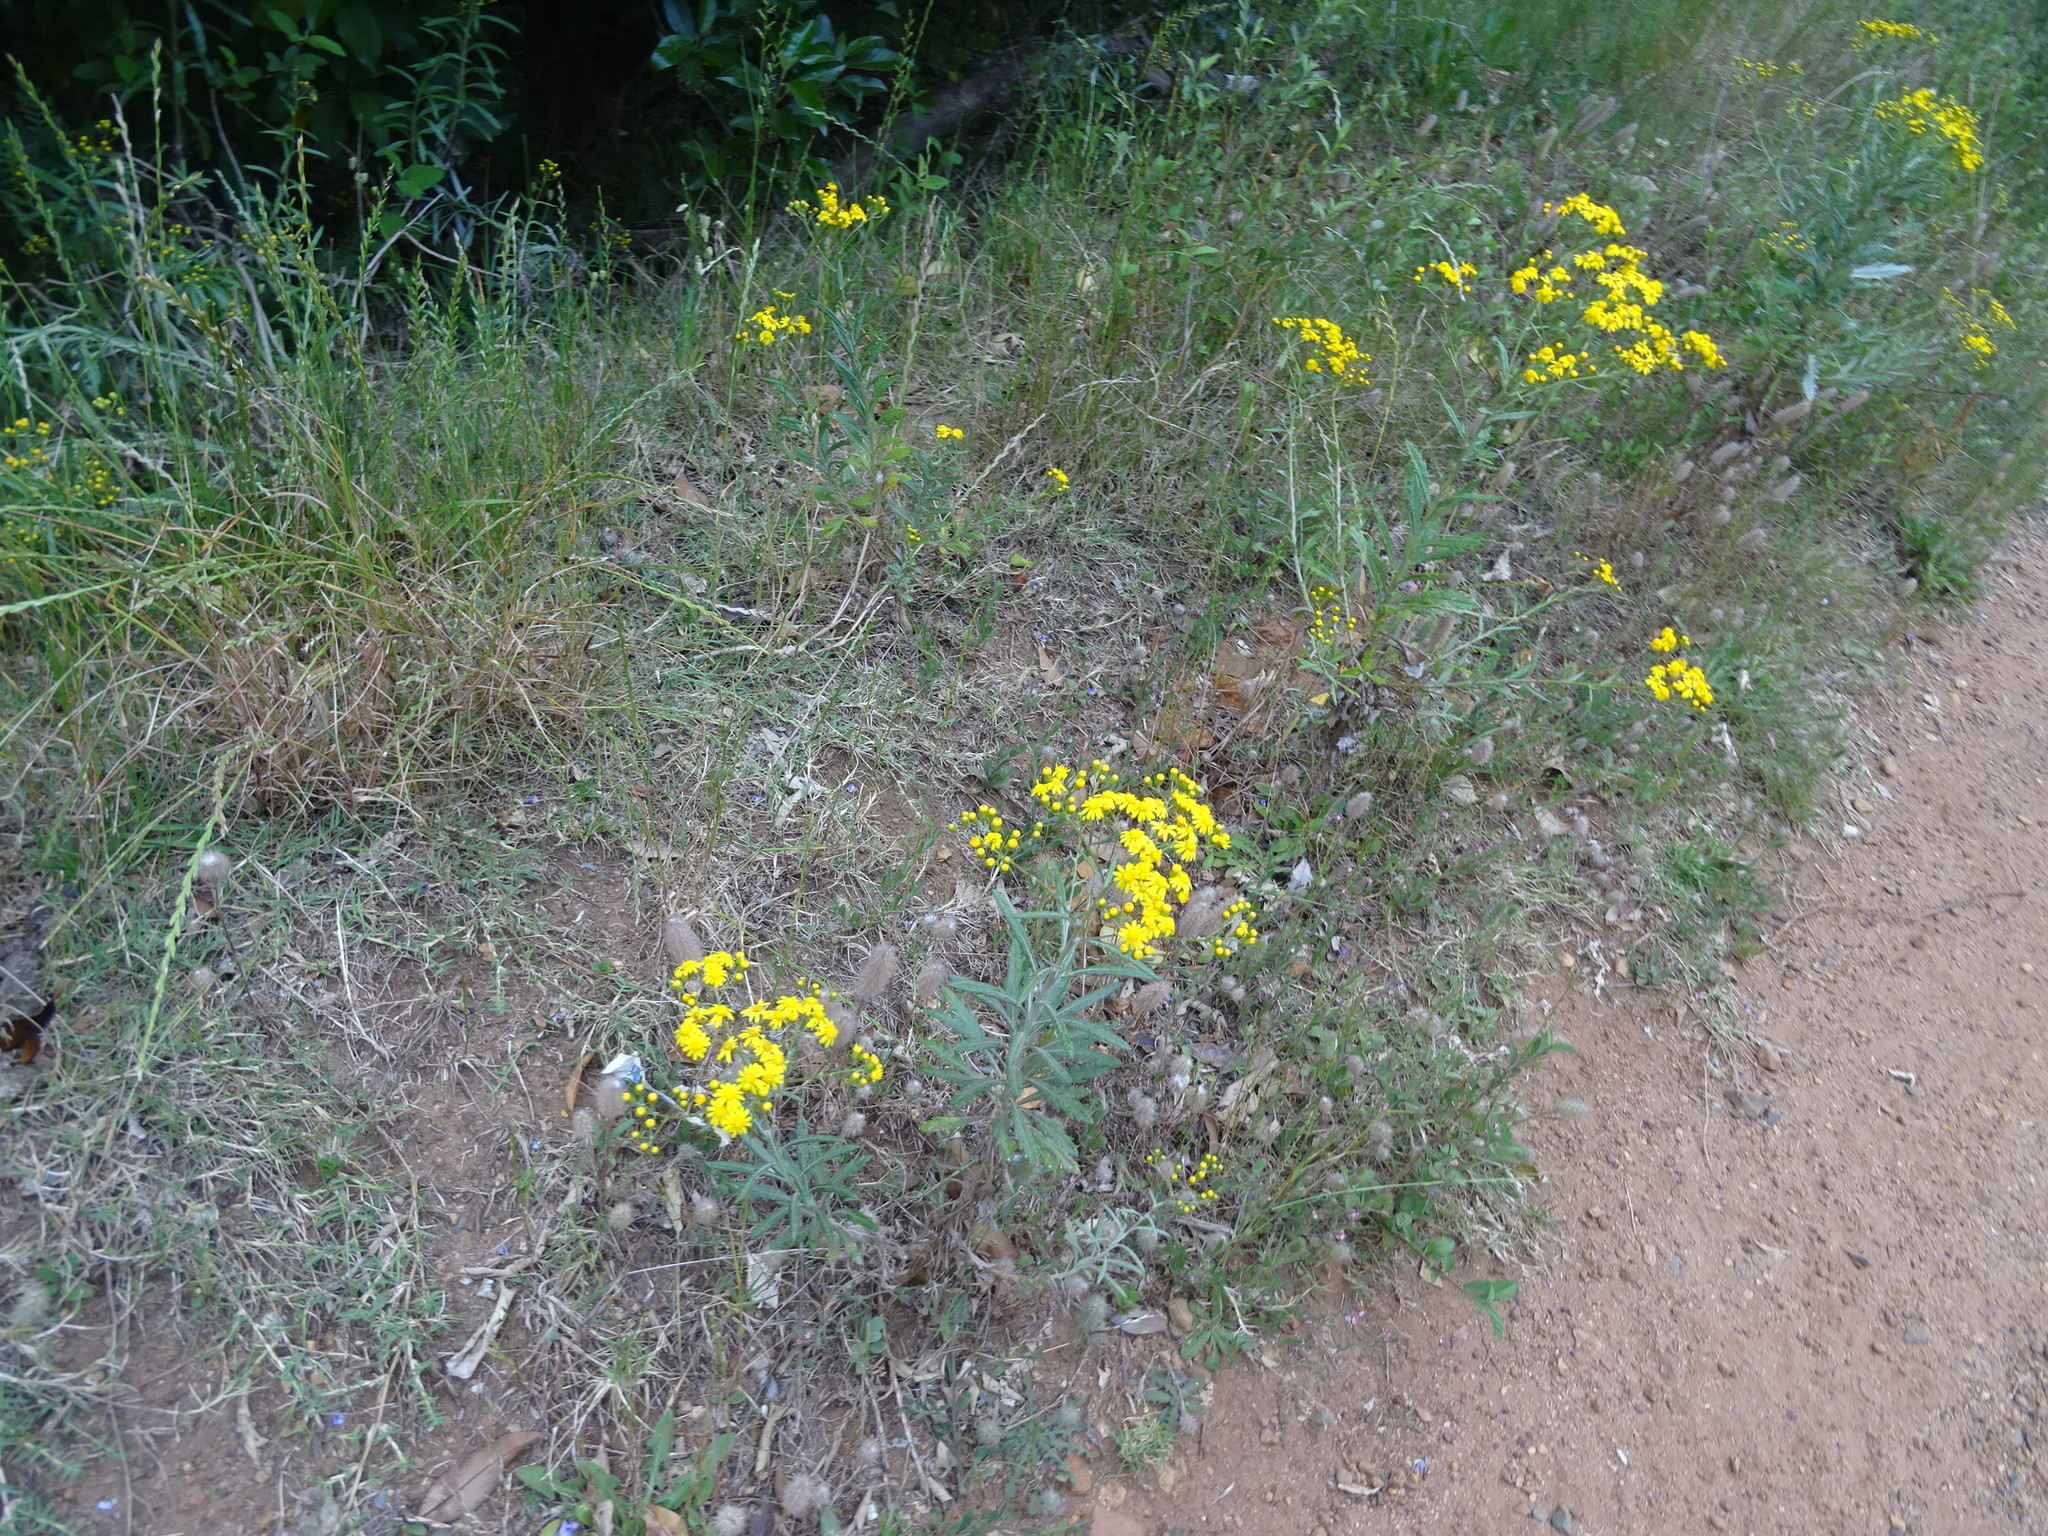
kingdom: Plantae
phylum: Tracheophyta
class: Magnoliopsida
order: Asterales
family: Asteraceae
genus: Senecio
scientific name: Senecio pterophorus
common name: Shoddy ragwort
